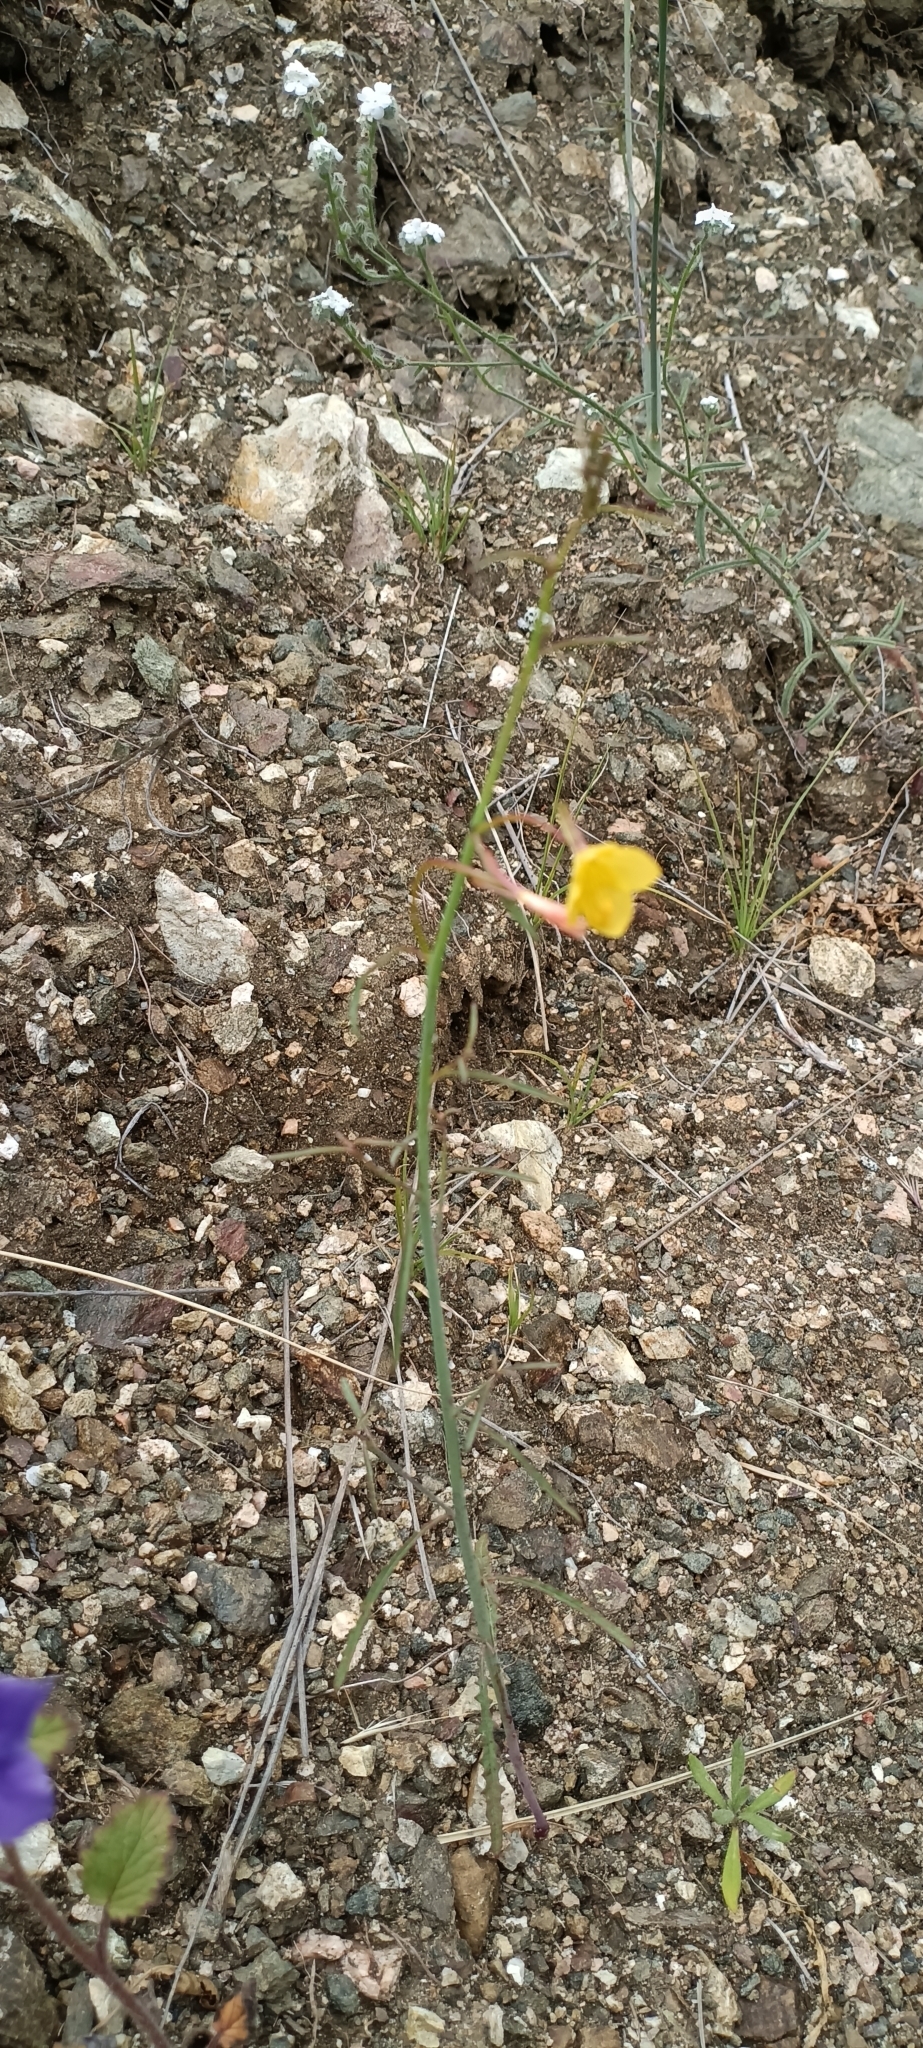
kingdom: Plantae
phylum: Tracheophyta
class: Magnoliopsida
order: Myrtales
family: Onagraceae
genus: Eulobus
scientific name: Eulobus californicus
